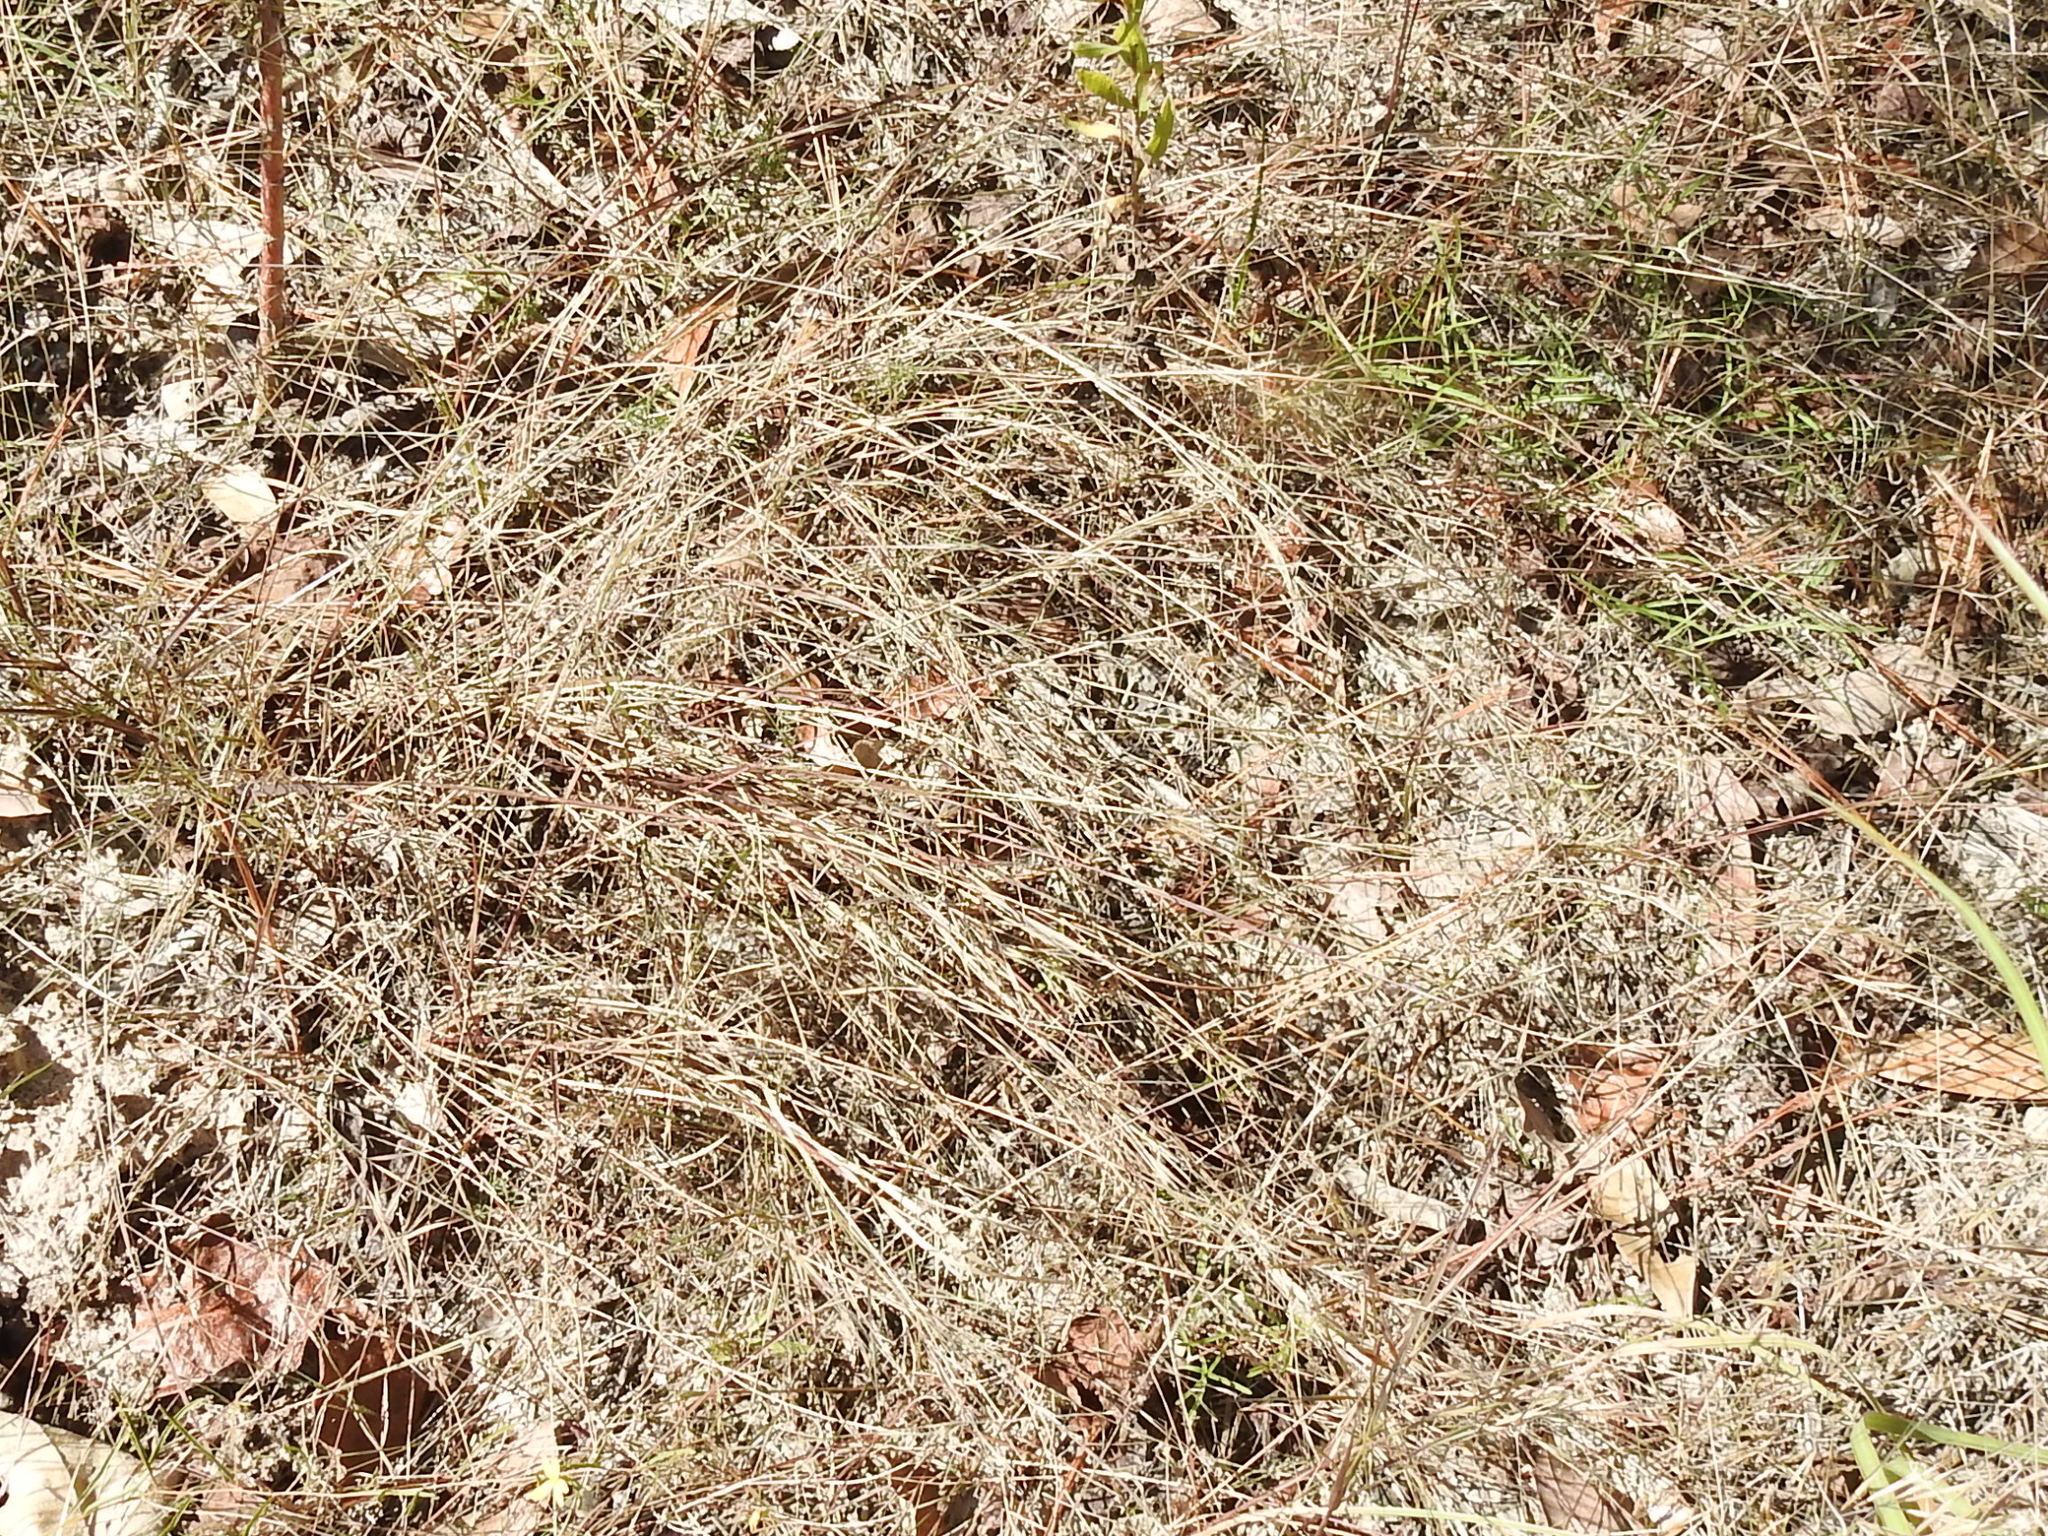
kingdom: Plantae
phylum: Tracheophyta
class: Liliopsida
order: Poales
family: Poaceae
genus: Aristida
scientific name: Aristida desmantha
